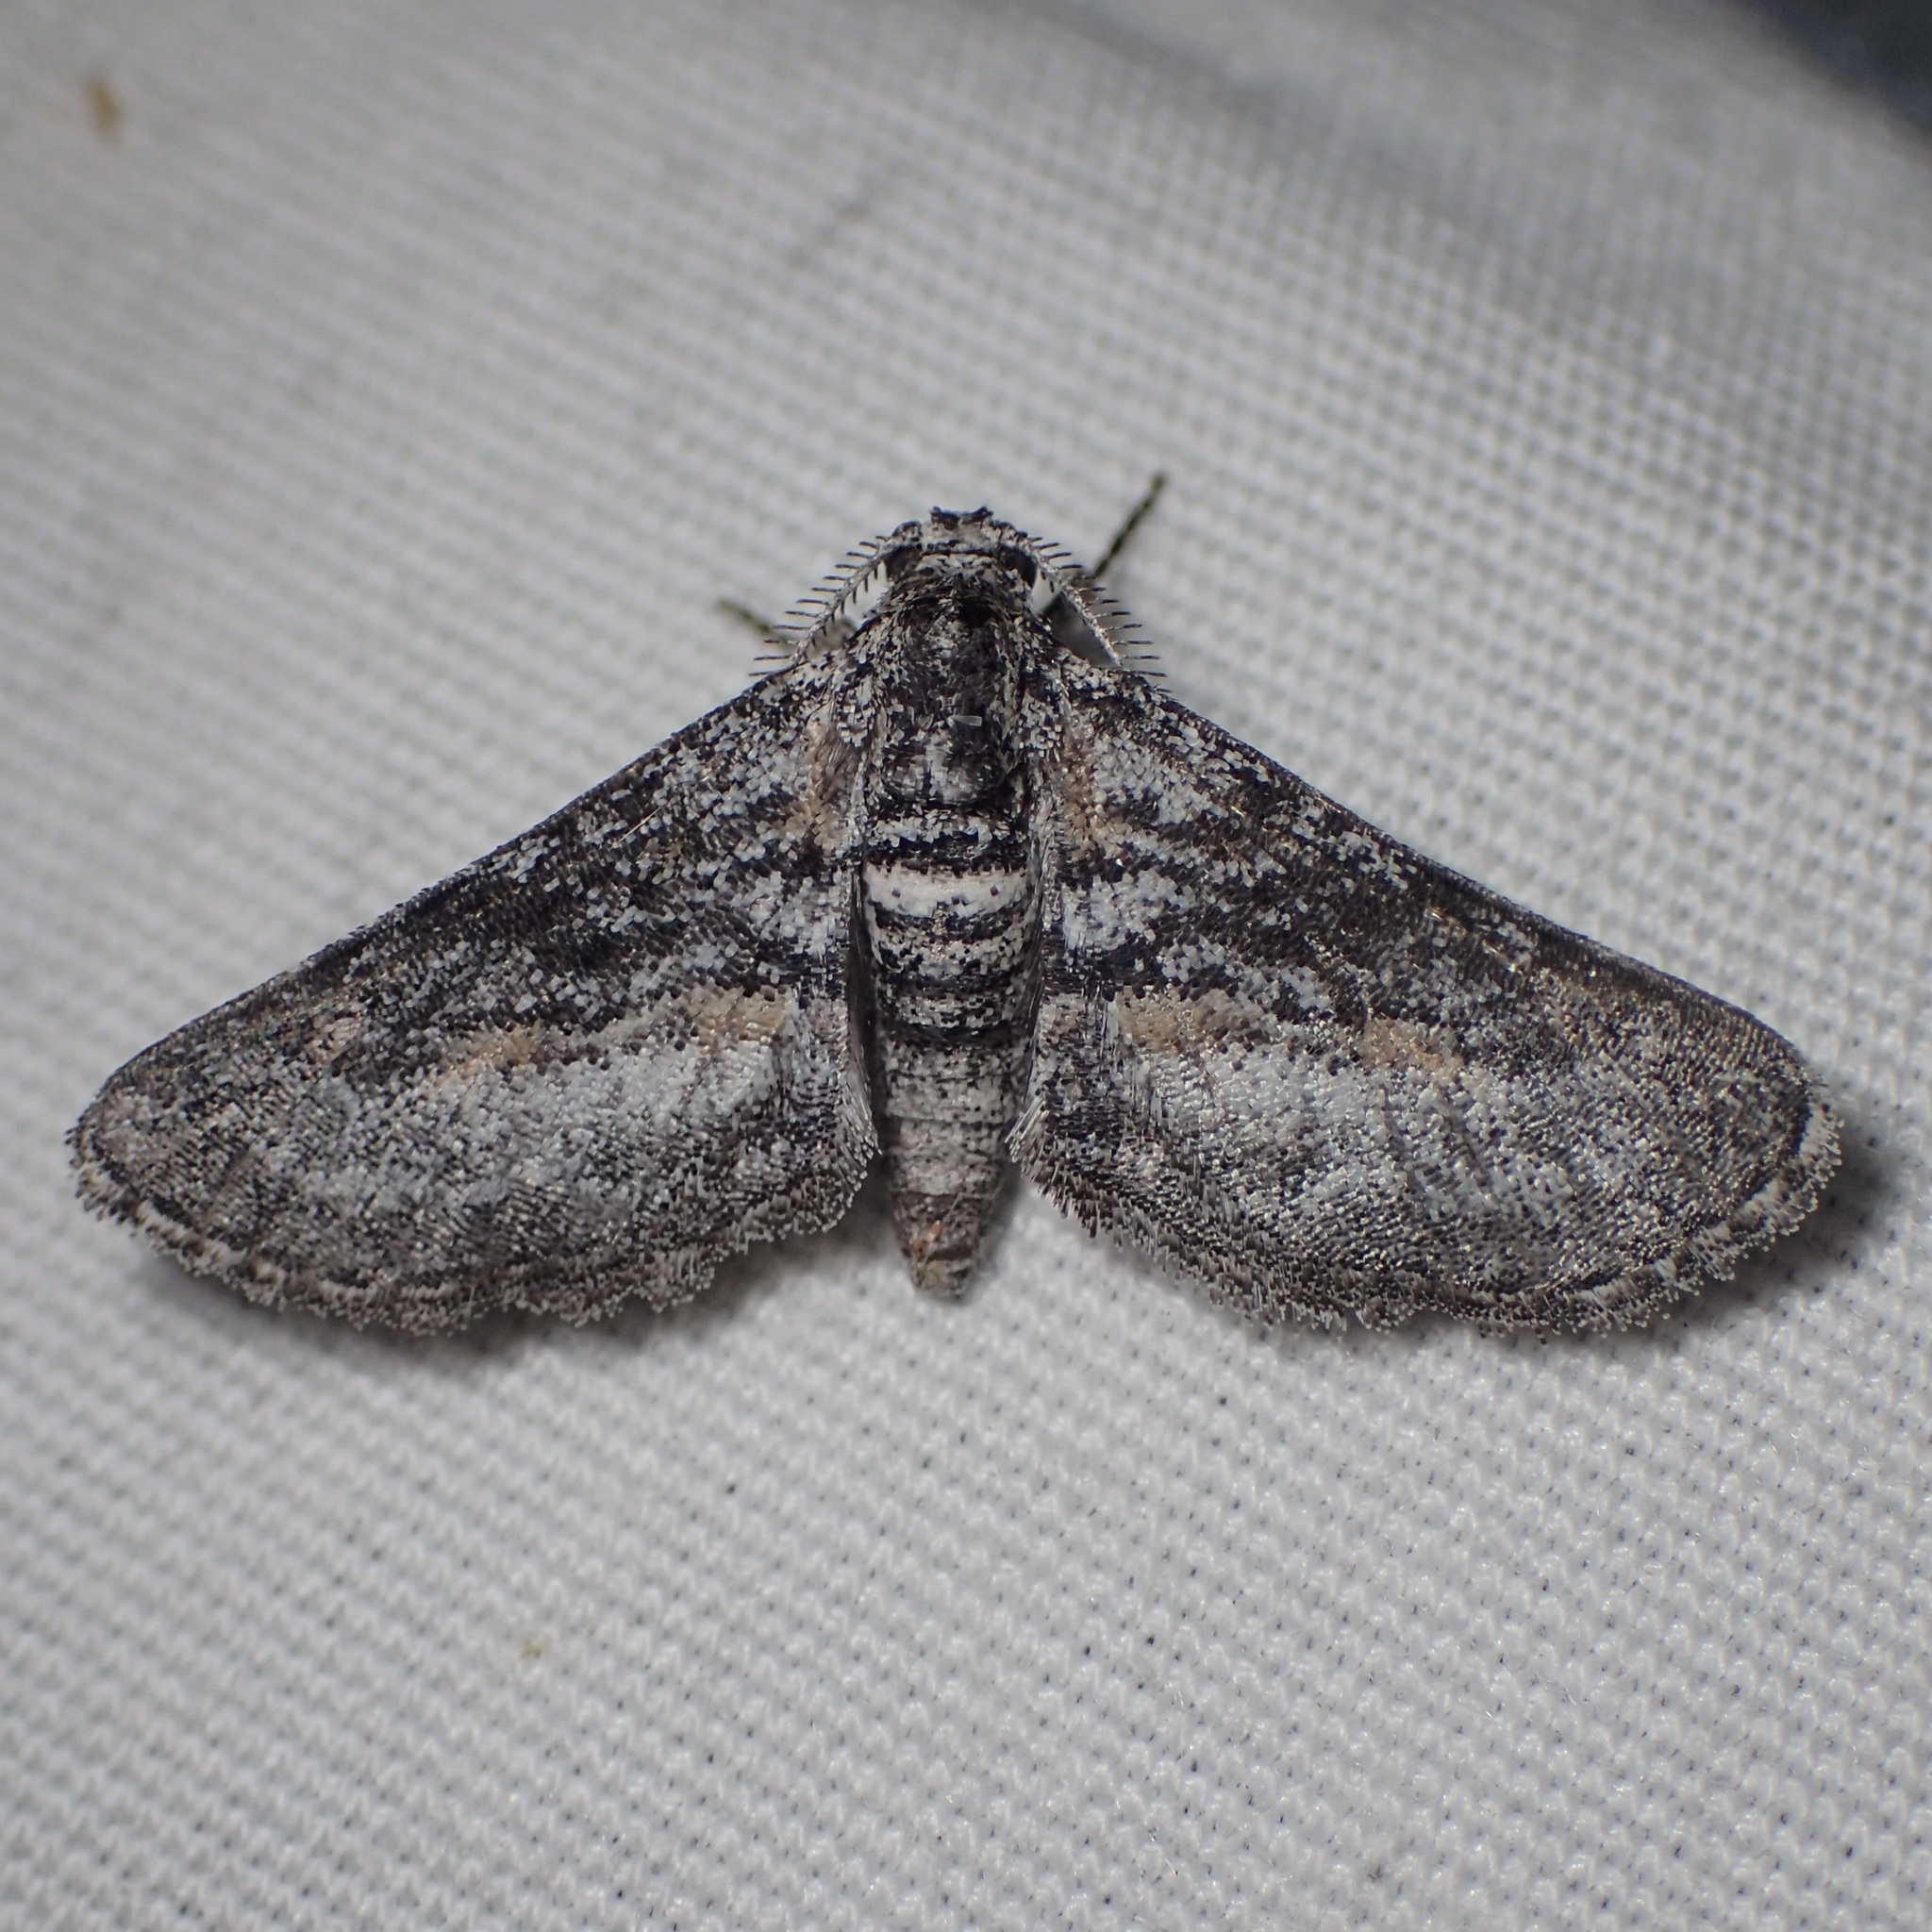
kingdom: Animalia
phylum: Arthropoda
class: Insecta
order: Lepidoptera
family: Geometridae
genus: Eubarnesia
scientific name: Eubarnesia ritaria
